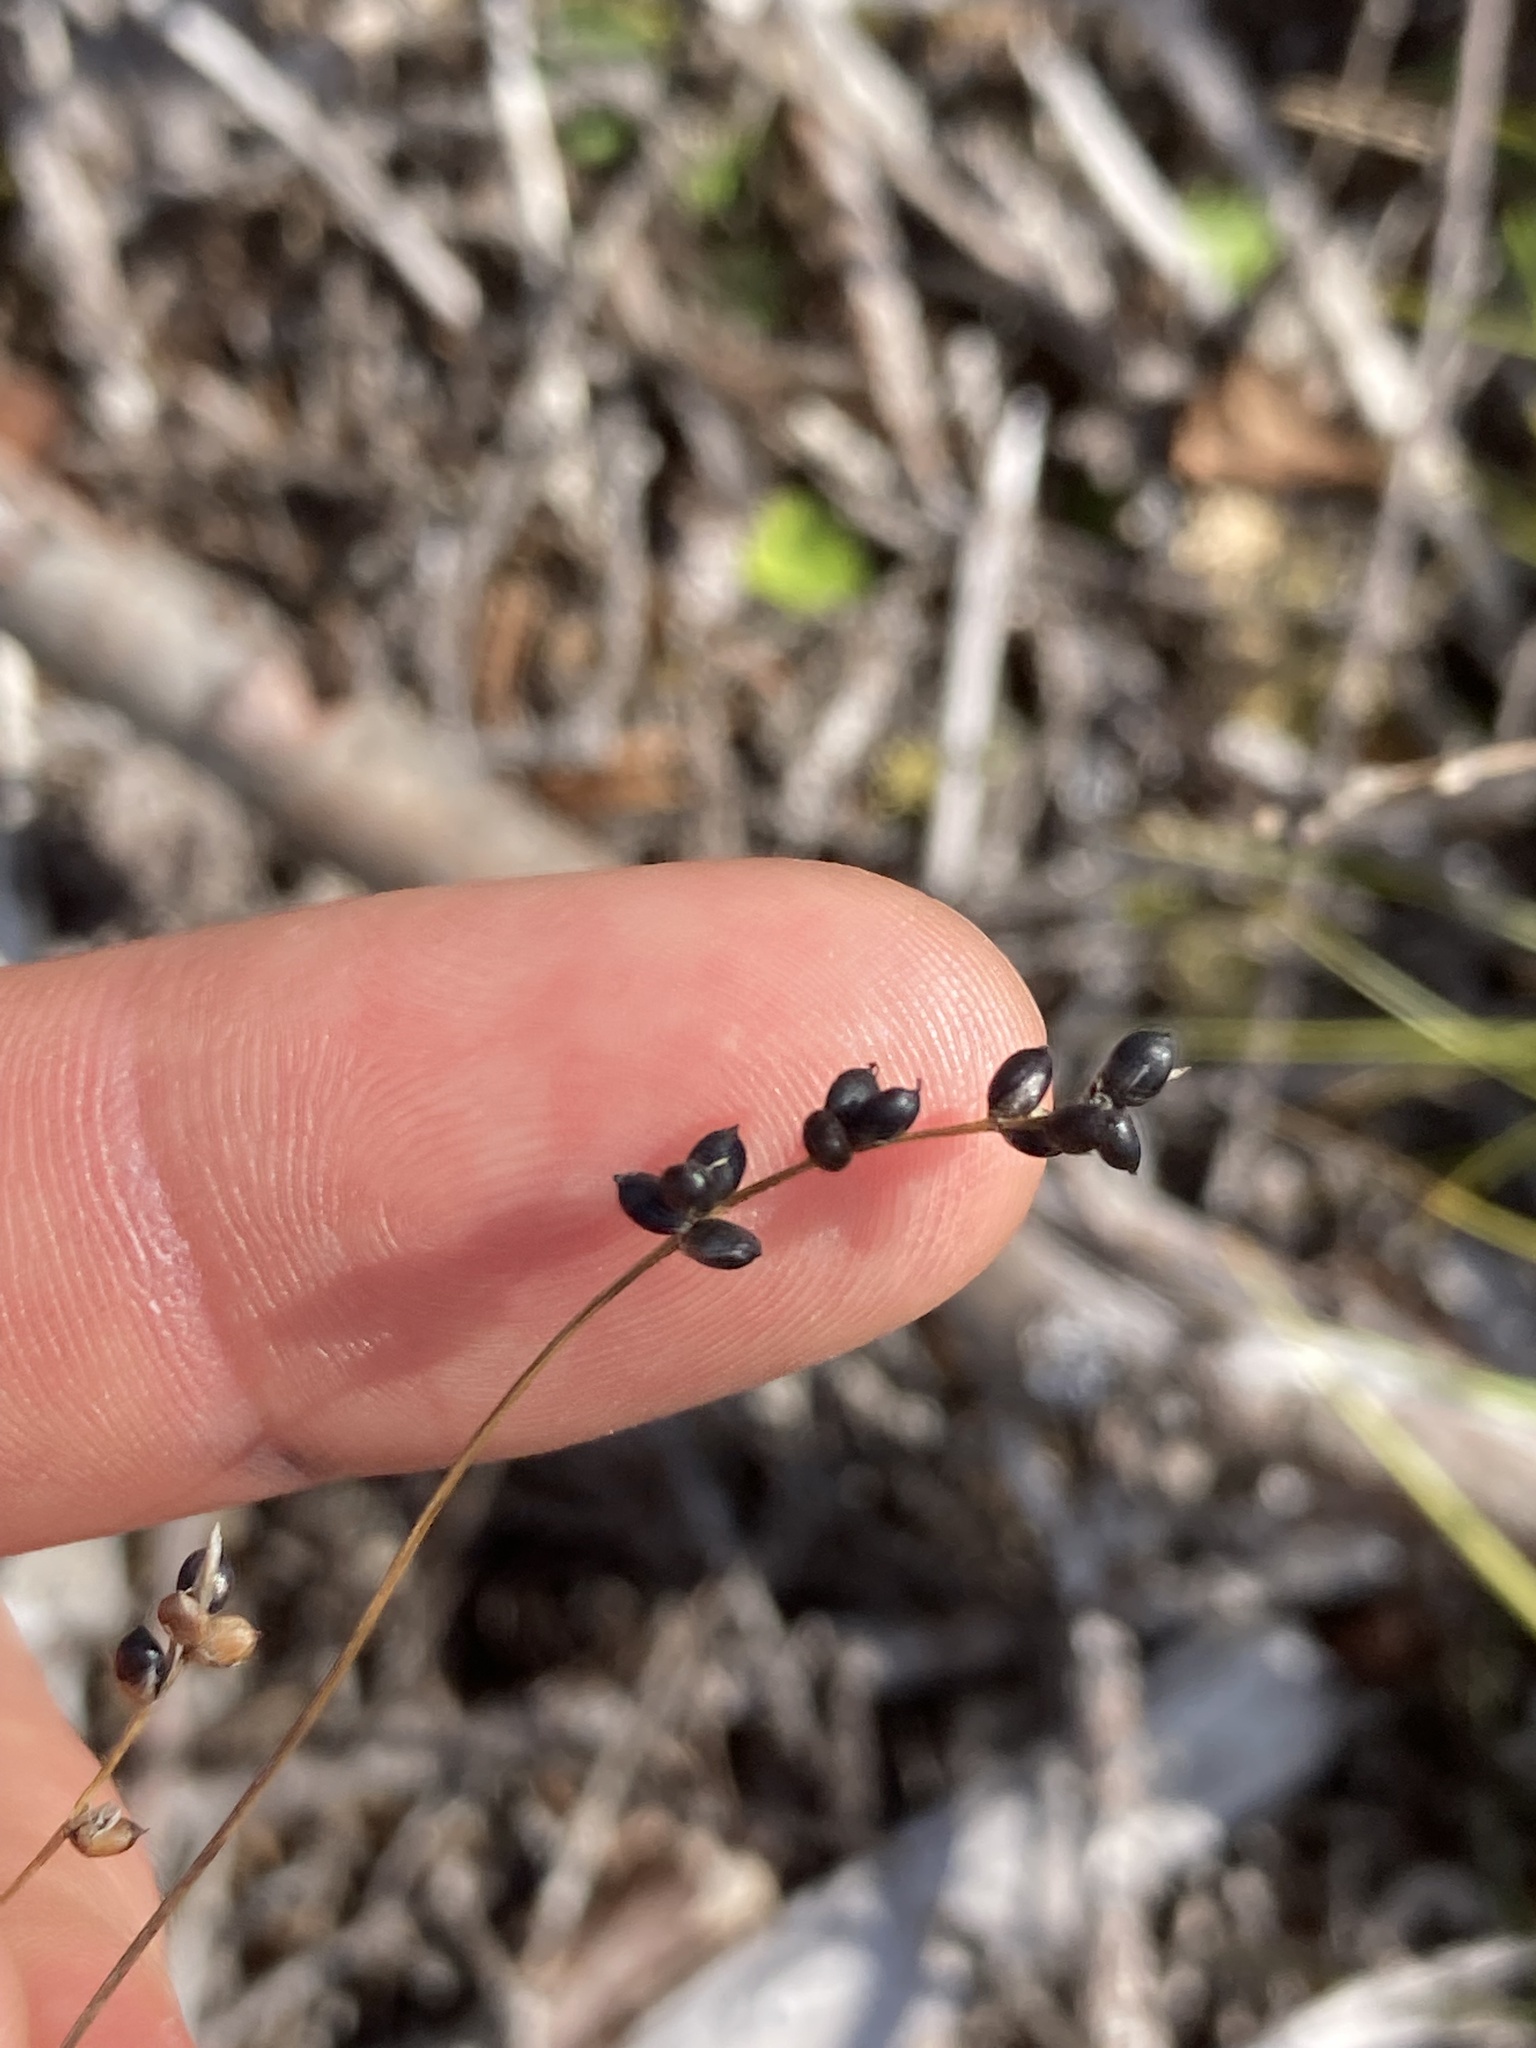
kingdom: Plantae
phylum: Tracheophyta
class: Liliopsida
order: Poales
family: Cyperaceae
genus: Carex
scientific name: Carex disperma
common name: Short-leaved sedge
